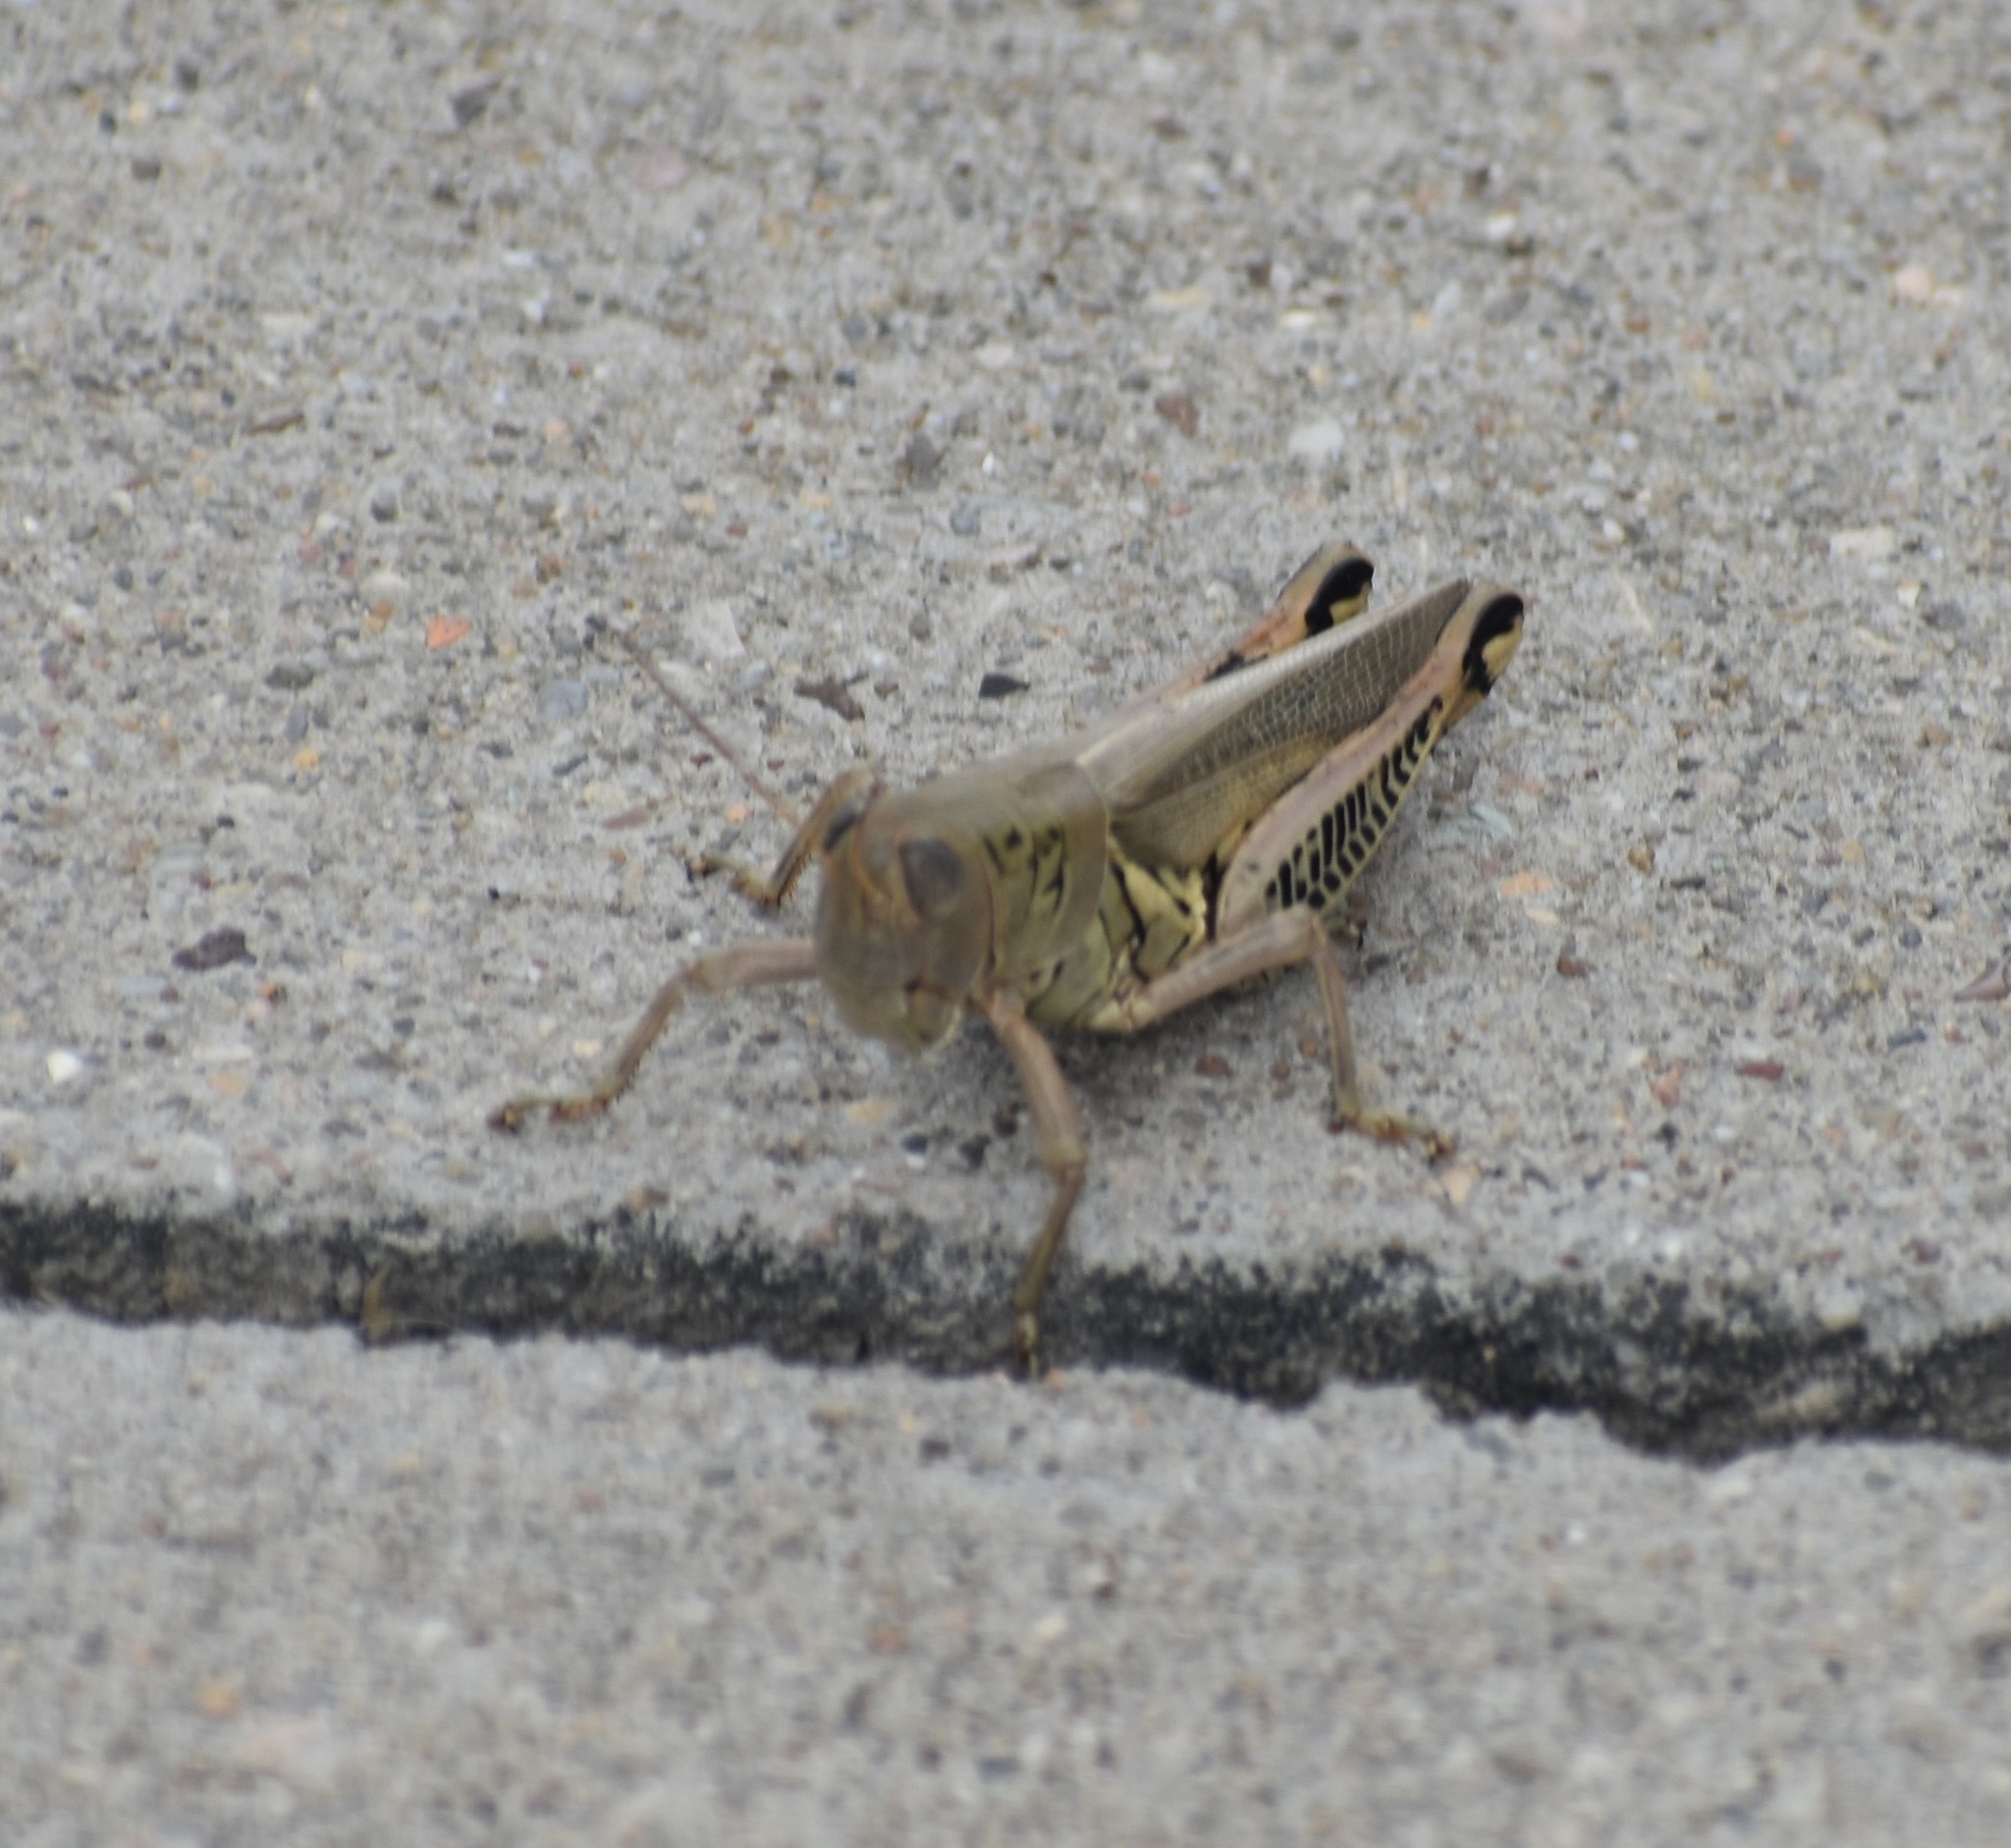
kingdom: Animalia
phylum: Arthropoda
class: Insecta
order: Orthoptera
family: Acrididae
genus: Melanoplus
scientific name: Melanoplus differentialis
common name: Differential grasshopper
